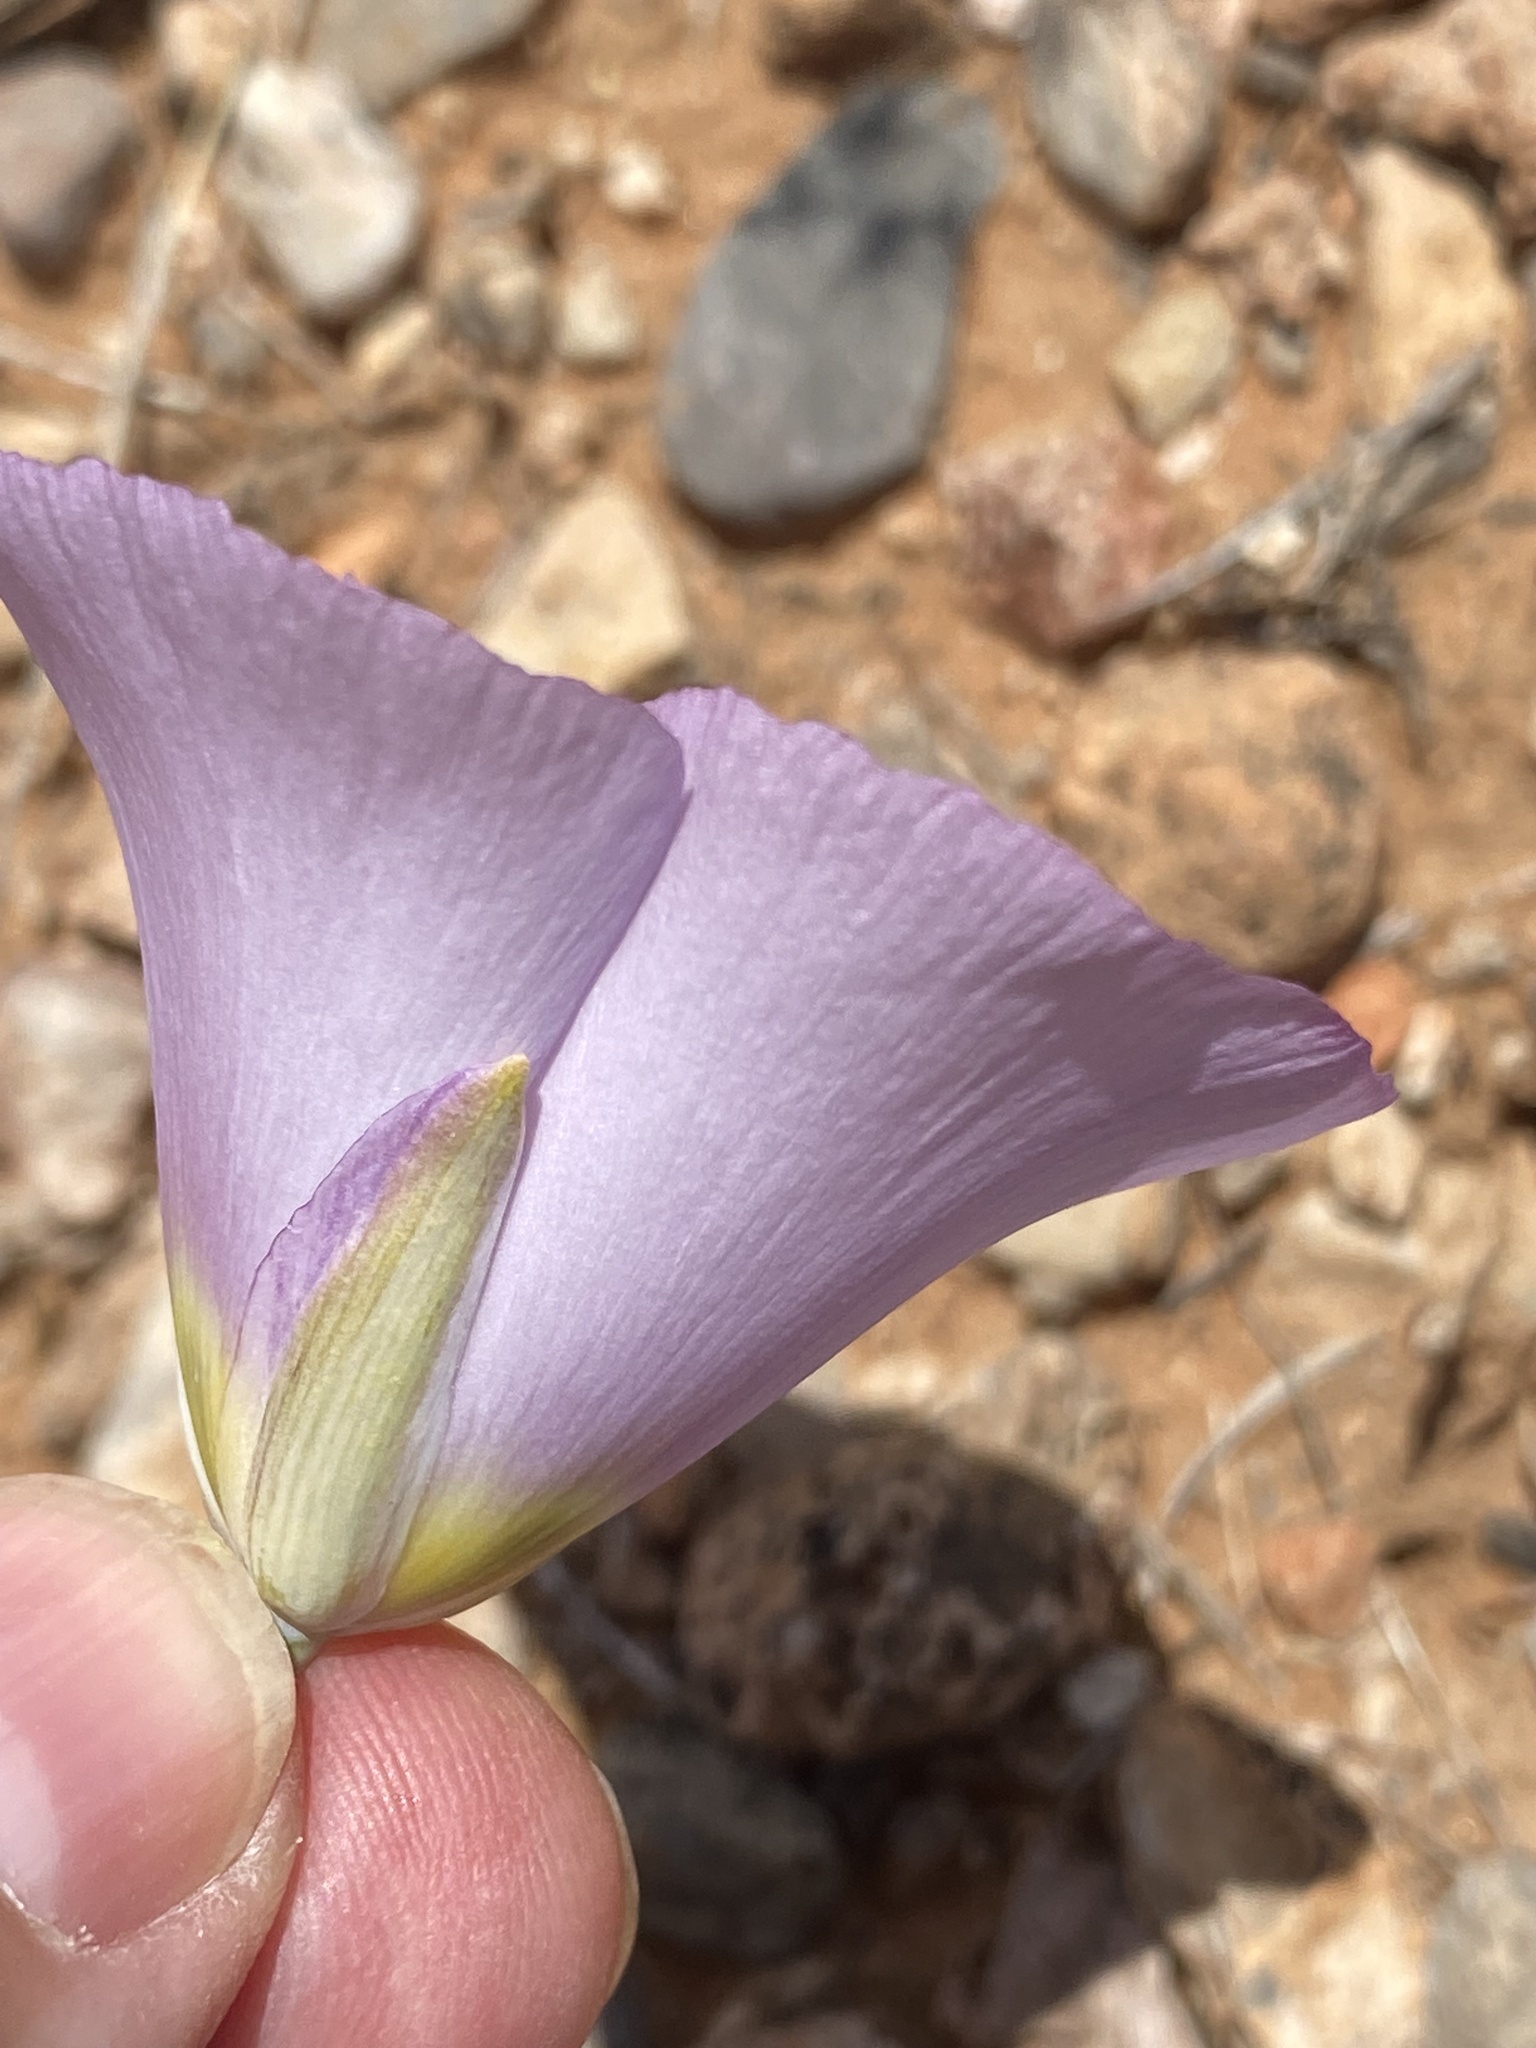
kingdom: Plantae
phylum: Tracheophyta
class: Liliopsida
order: Liliales
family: Liliaceae
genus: Calochortus
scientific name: Calochortus flexuosus
